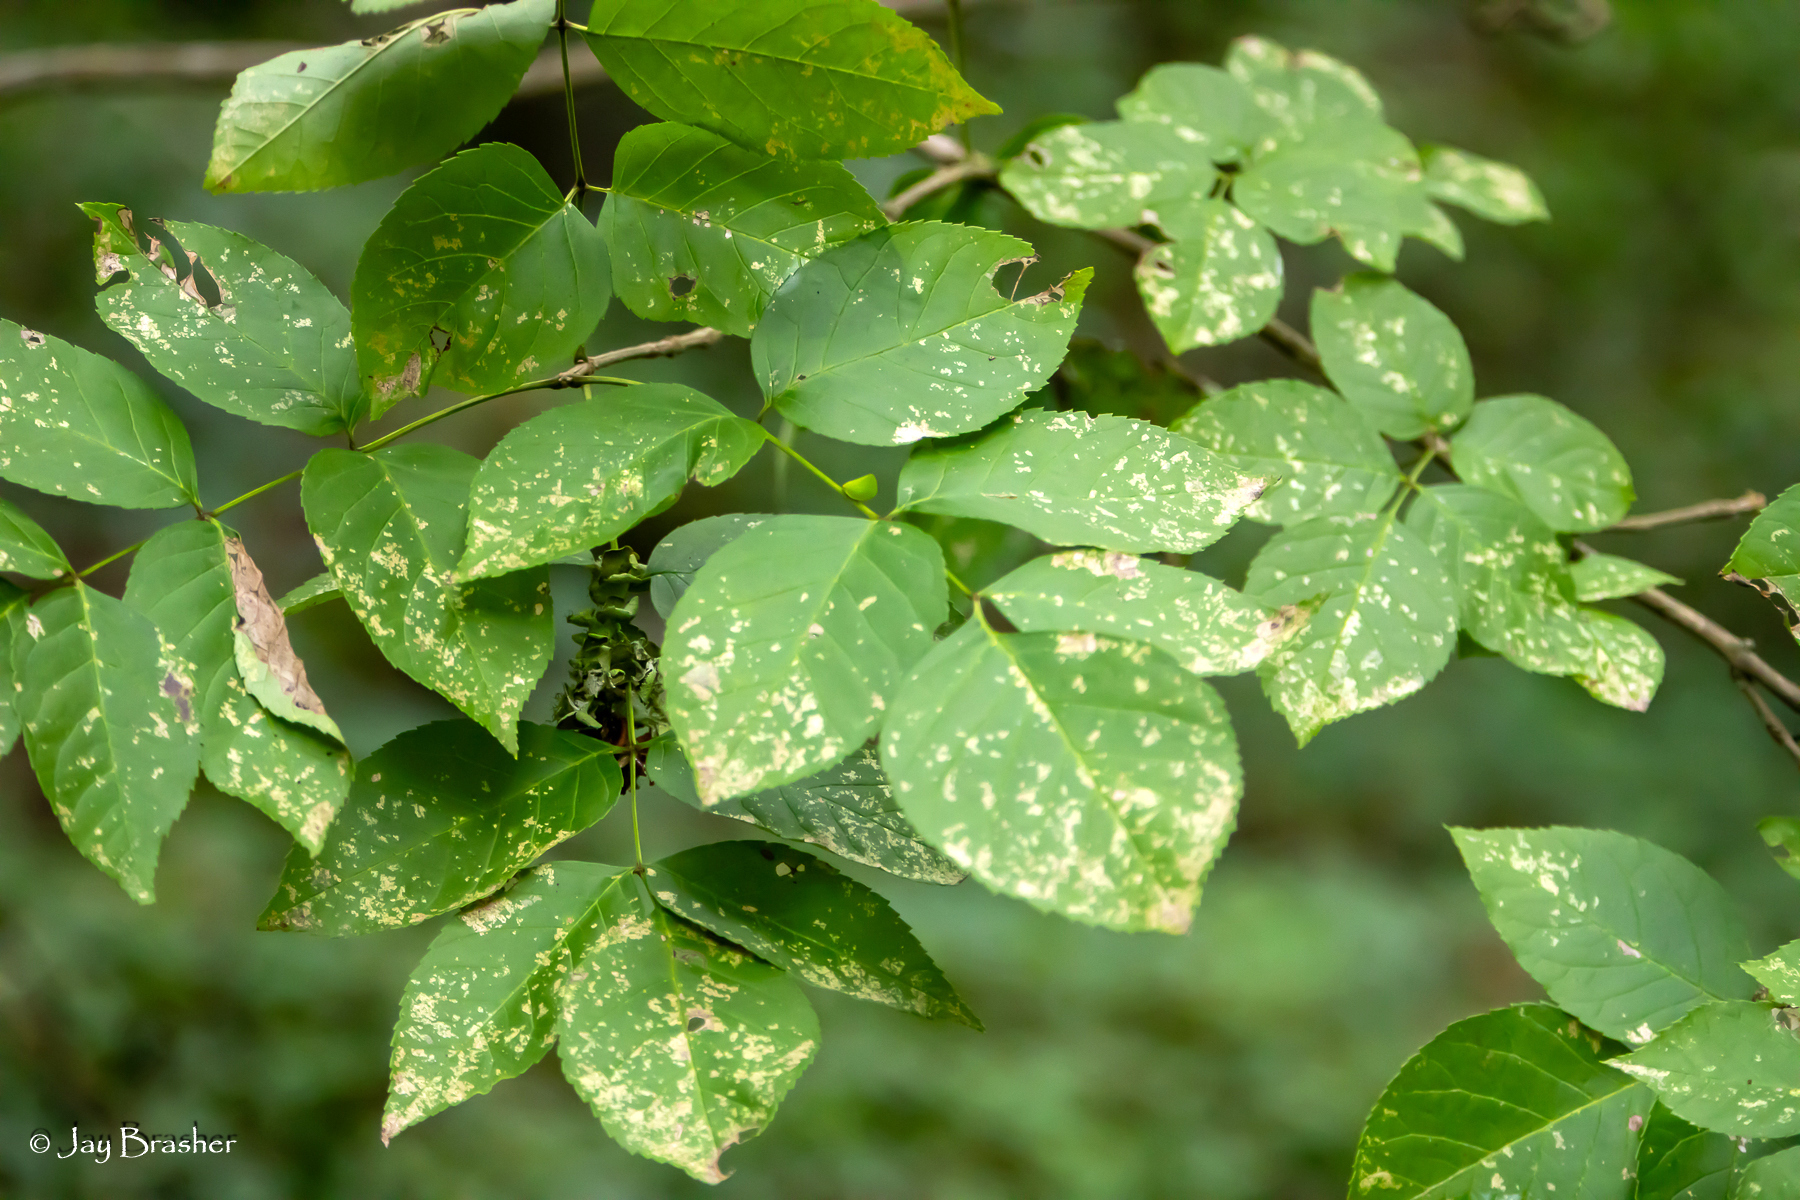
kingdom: Plantae
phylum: Tracheophyta
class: Magnoliopsida
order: Lamiales
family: Oleaceae
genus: Fraxinus
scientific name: Fraxinus quadrangulata
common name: Blue ash
